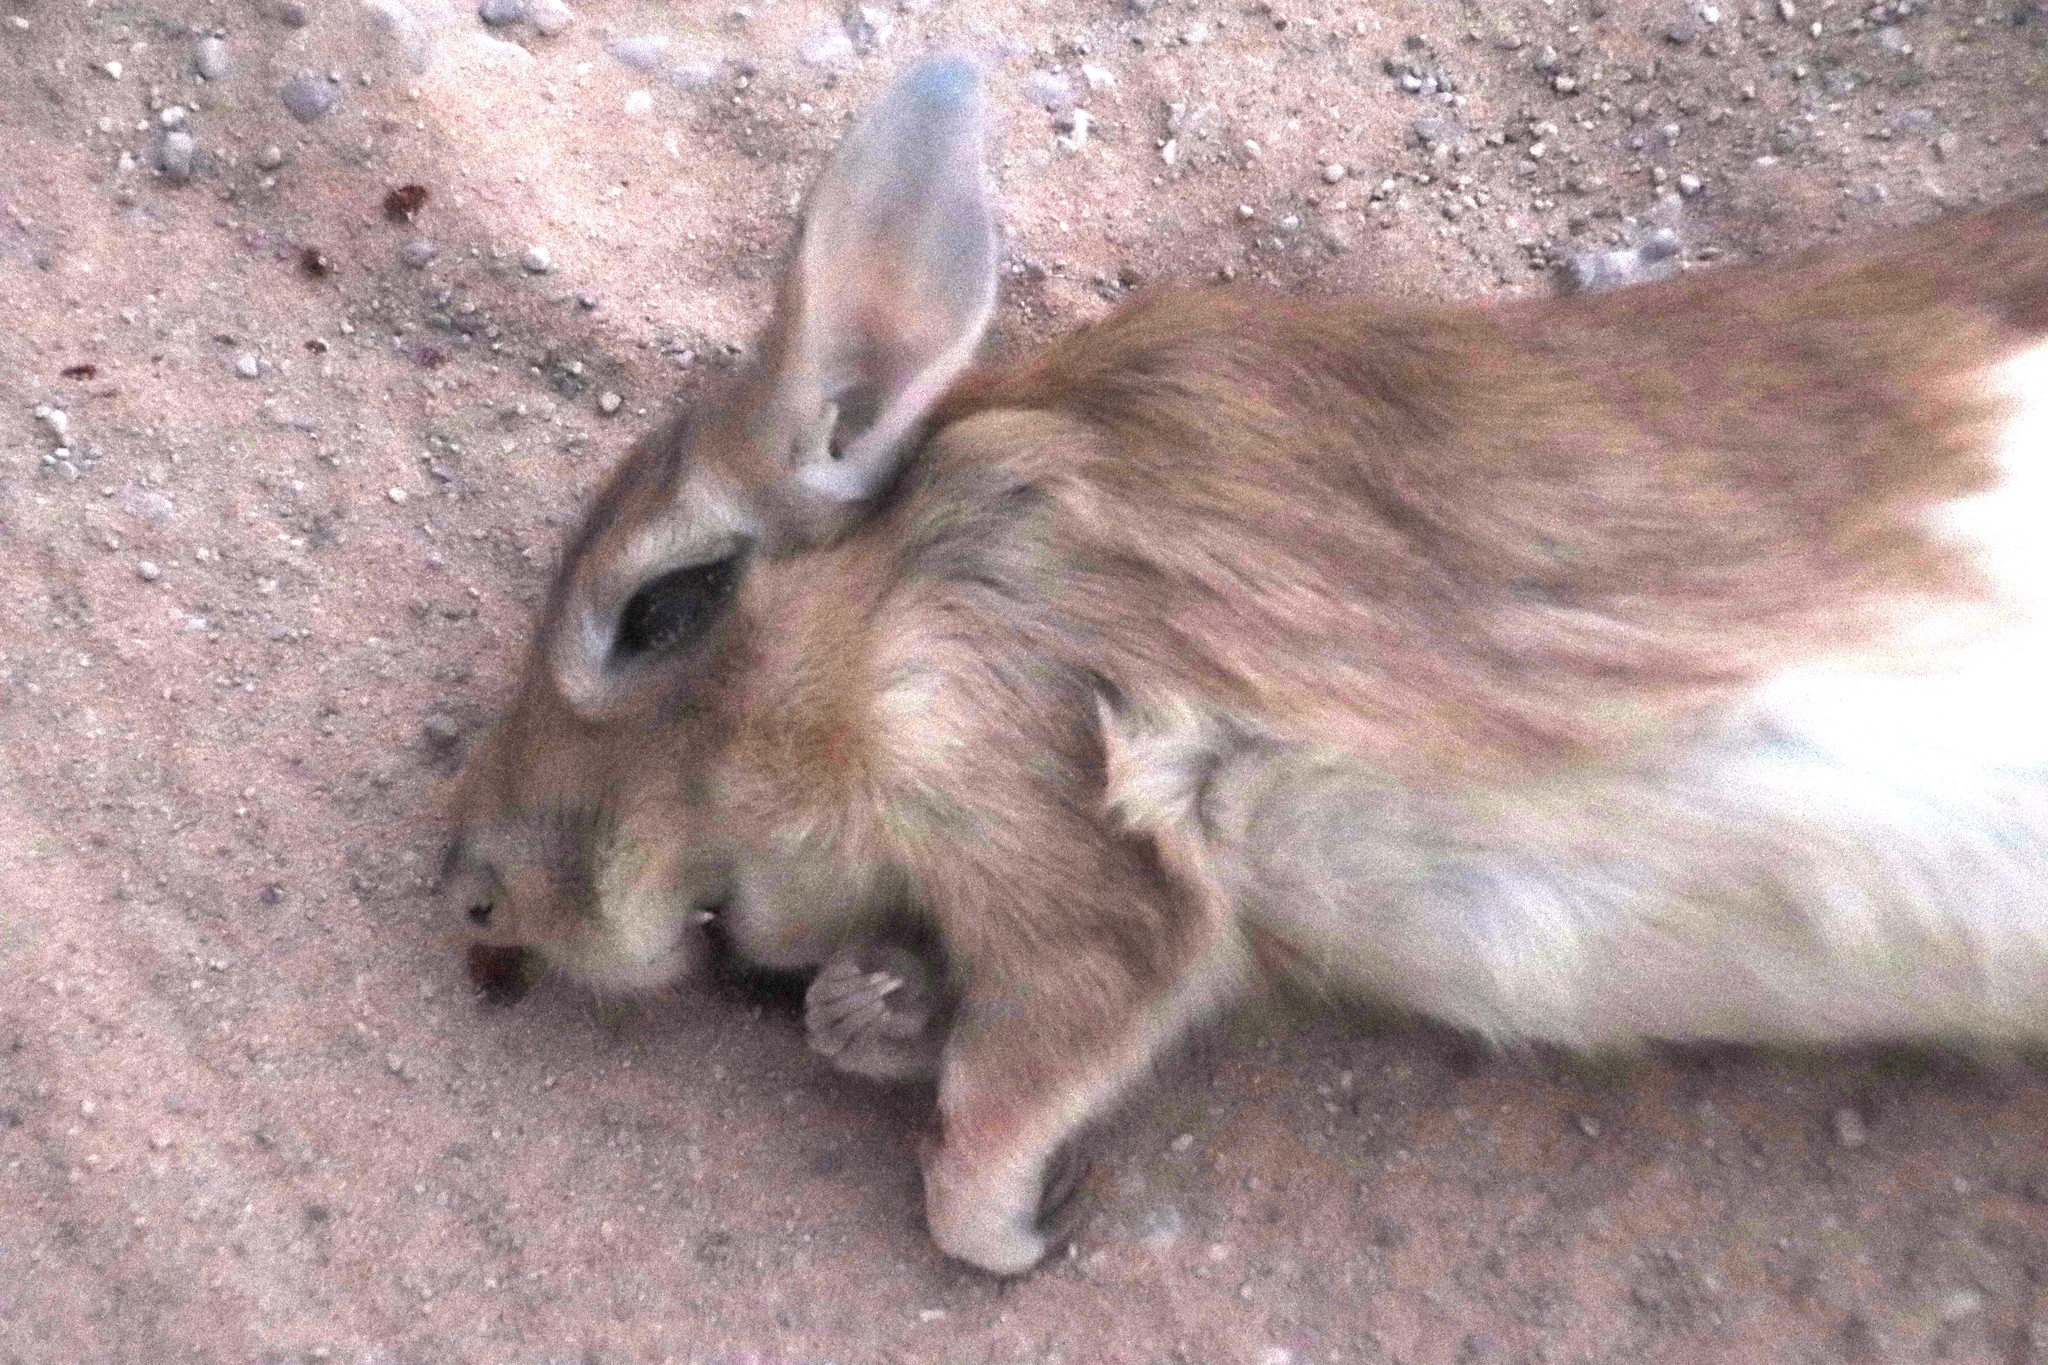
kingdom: Animalia
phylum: Chordata
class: Mammalia
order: Rodentia
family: Pedetidae
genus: Pedetes
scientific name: Pedetes capensis
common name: South african spring hare
